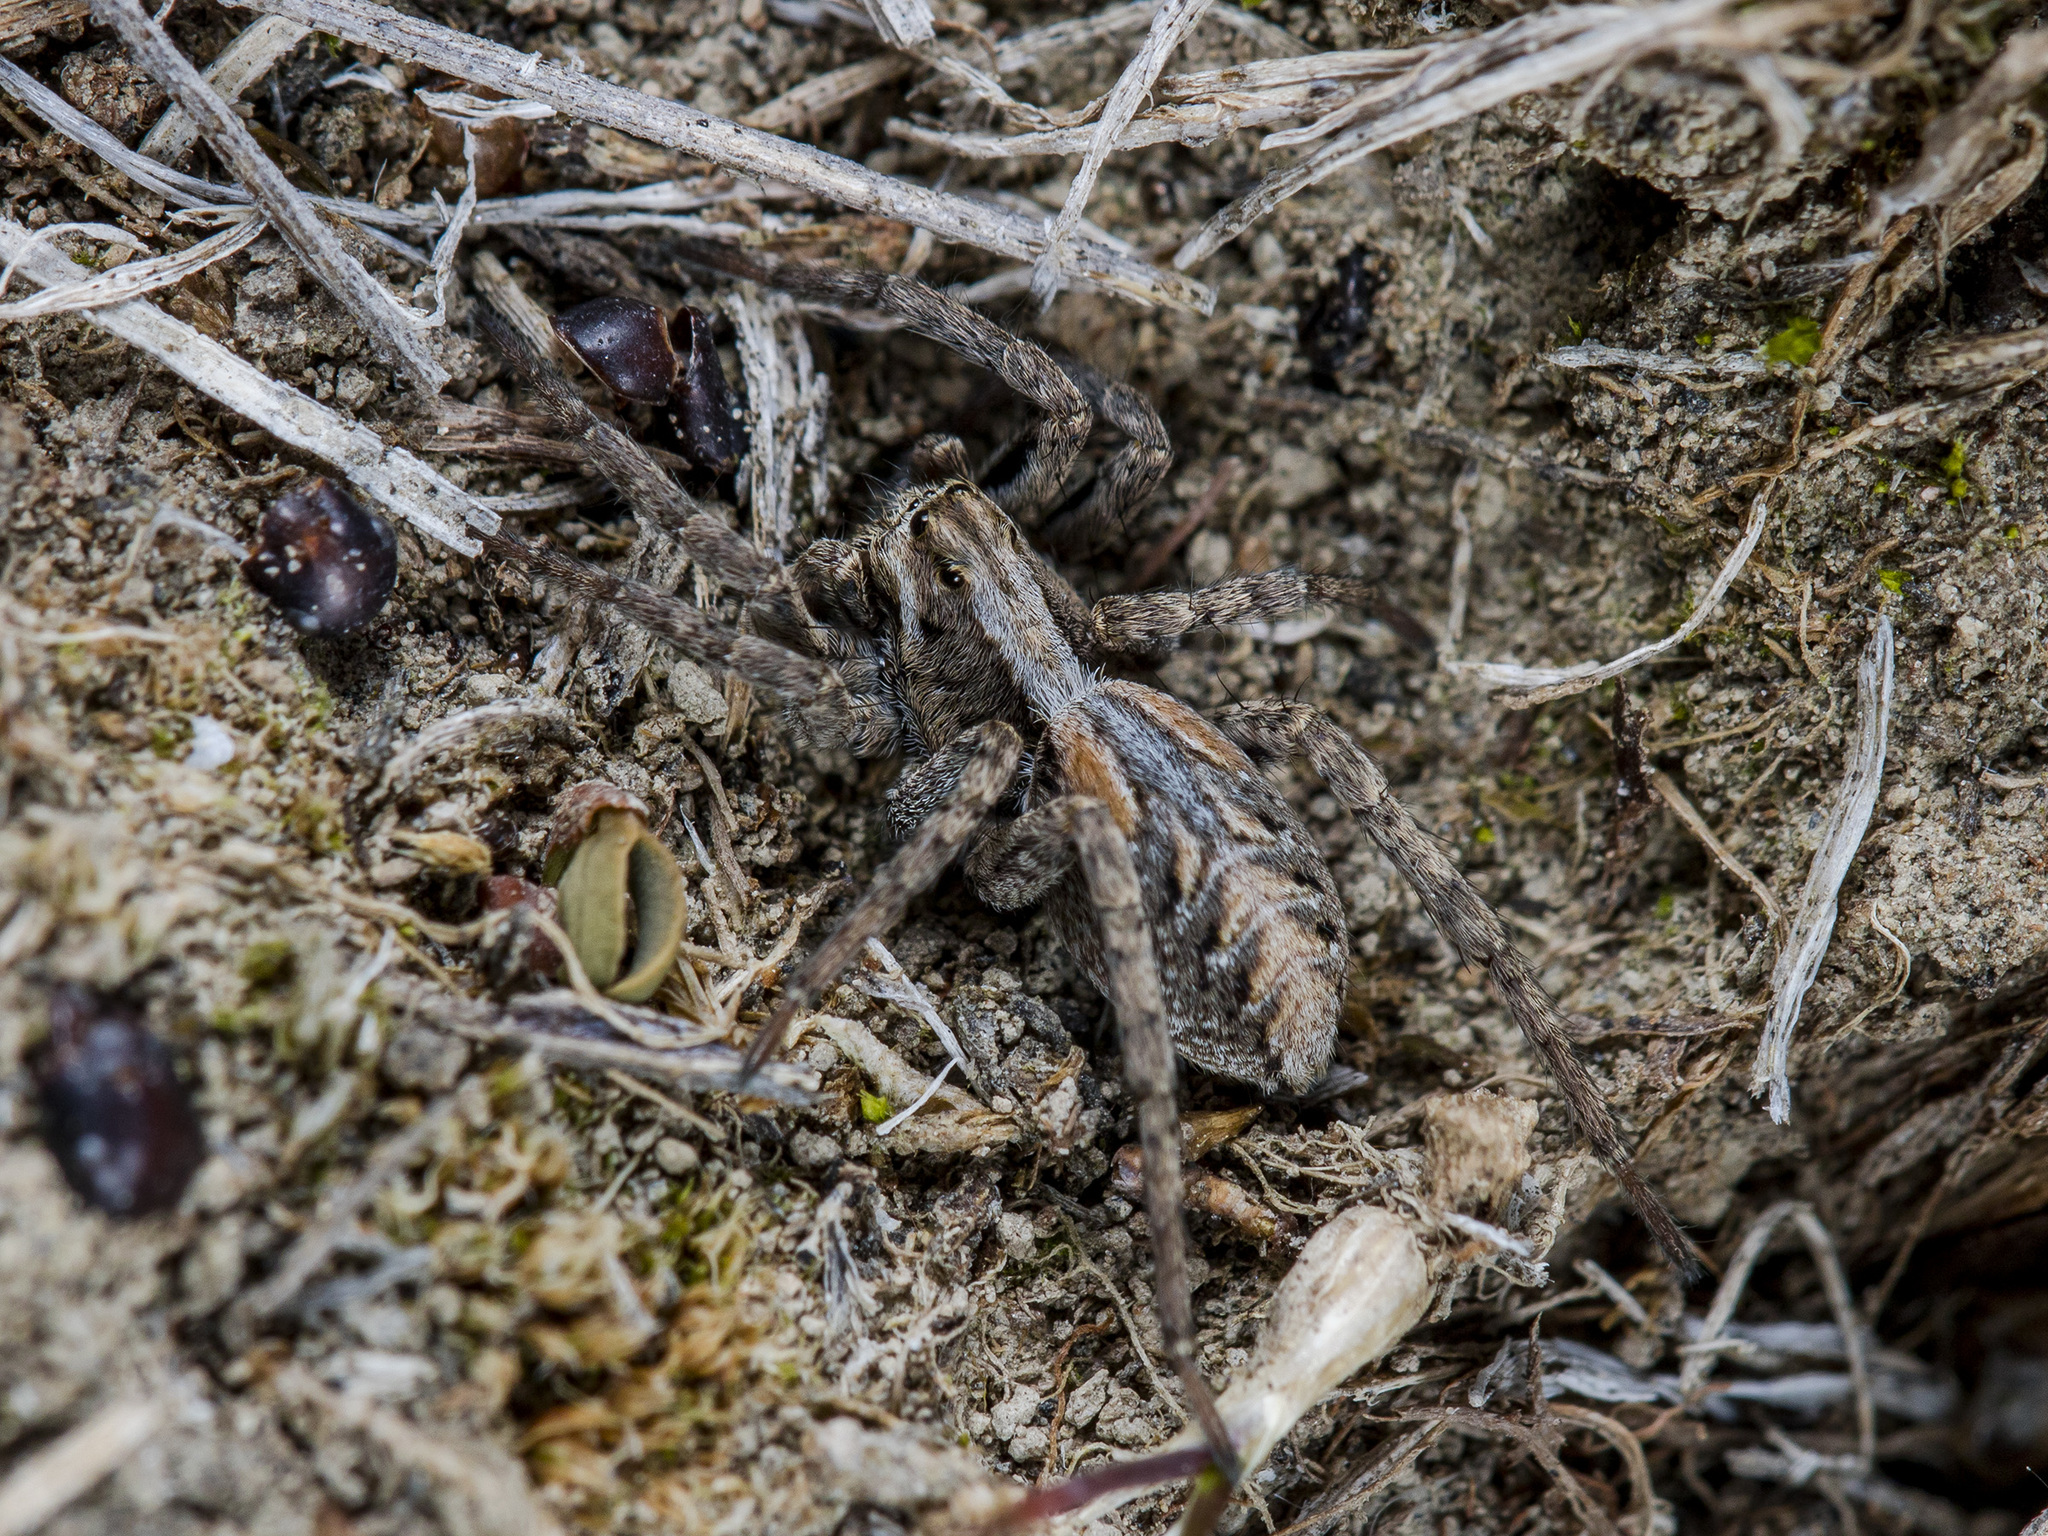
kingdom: Animalia
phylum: Arthropoda
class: Arachnida
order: Araneae
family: Lycosidae
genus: Alopecosa
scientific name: Alopecosa cursor
